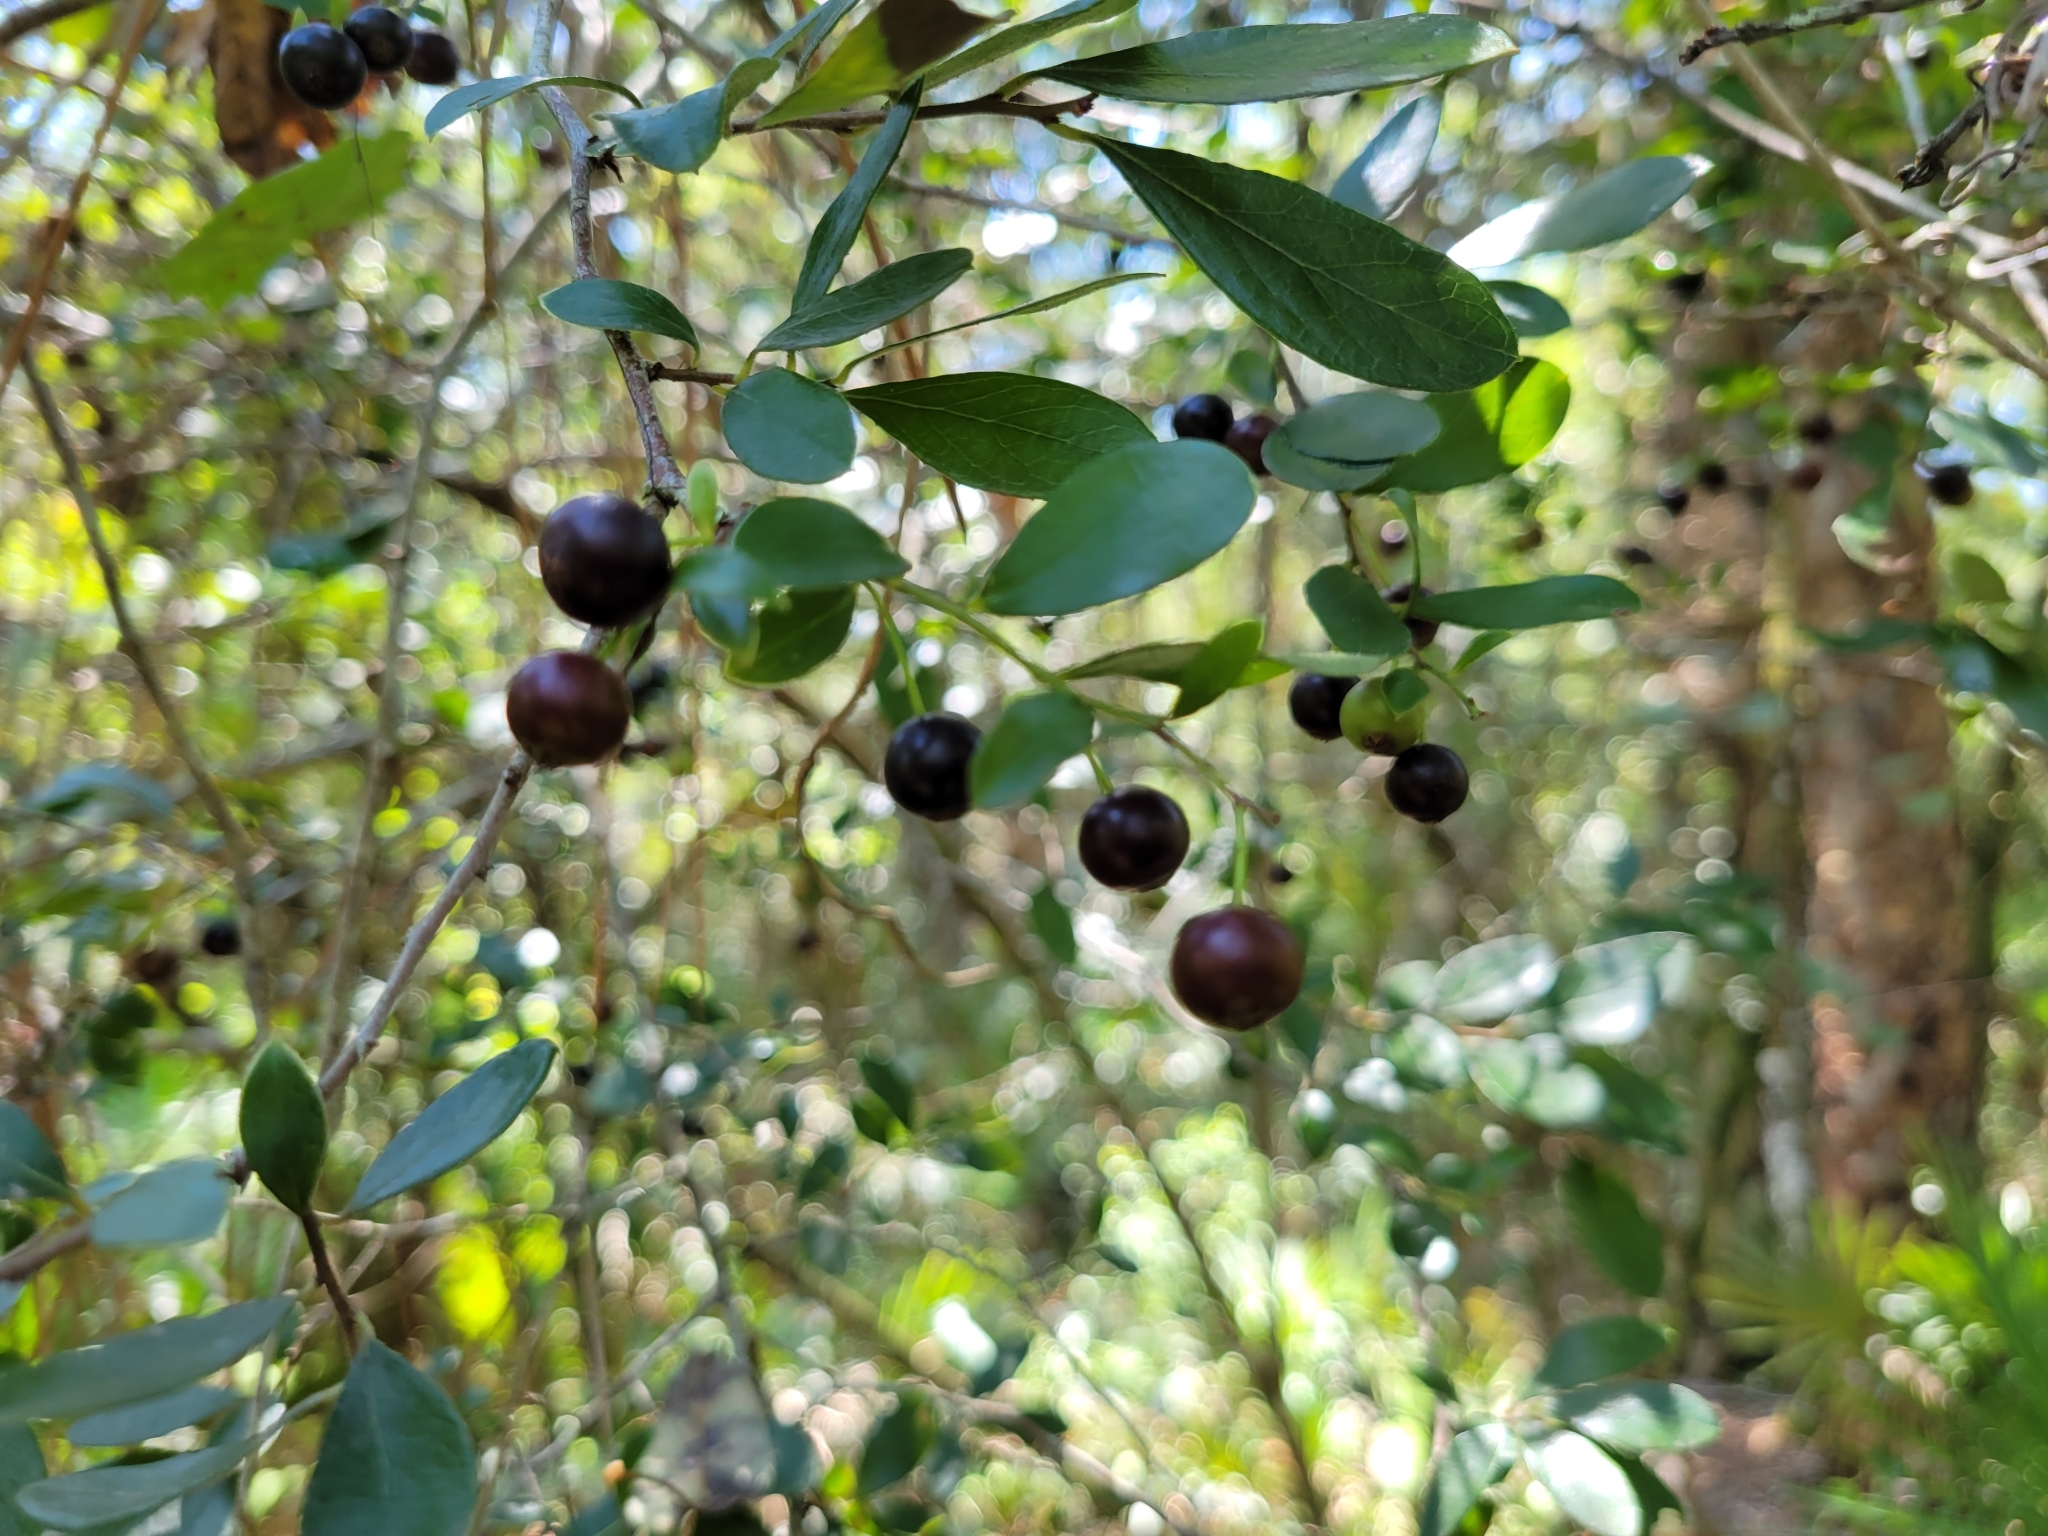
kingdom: Plantae
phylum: Tracheophyta
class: Magnoliopsida
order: Ericales
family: Ericaceae
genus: Vaccinium
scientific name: Vaccinium arboreum
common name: Farkleberry
